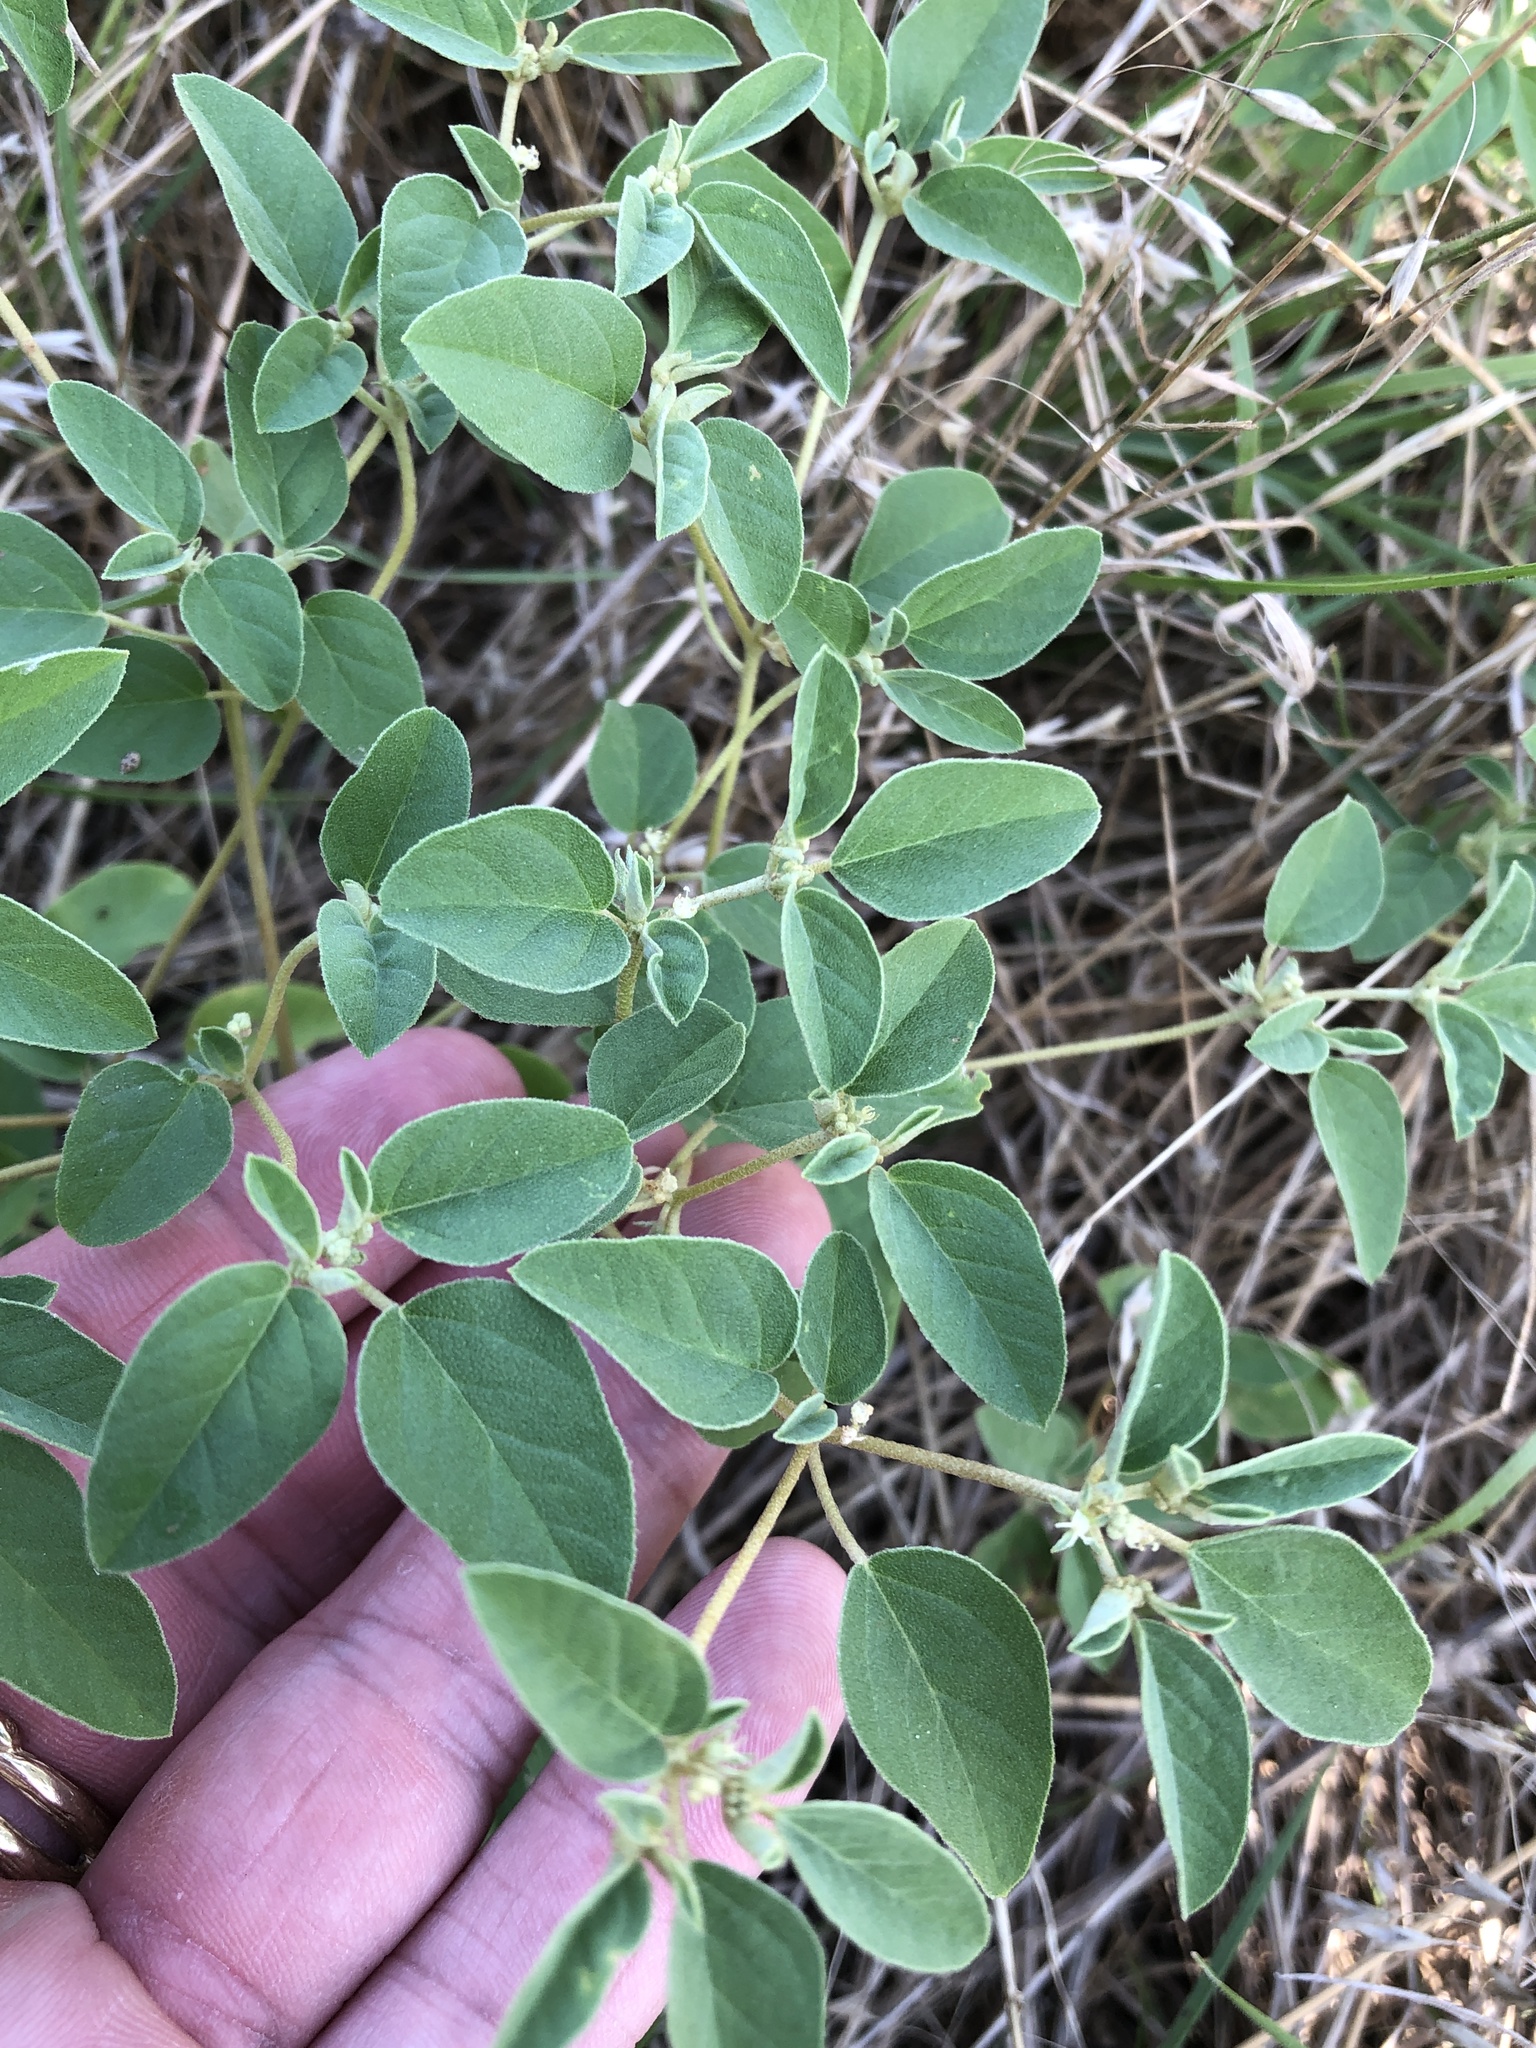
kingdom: Plantae
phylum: Tracheophyta
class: Magnoliopsida
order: Malpighiales
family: Euphorbiaceae
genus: Croton
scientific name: Croton monanthogynus
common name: One-seed croton
